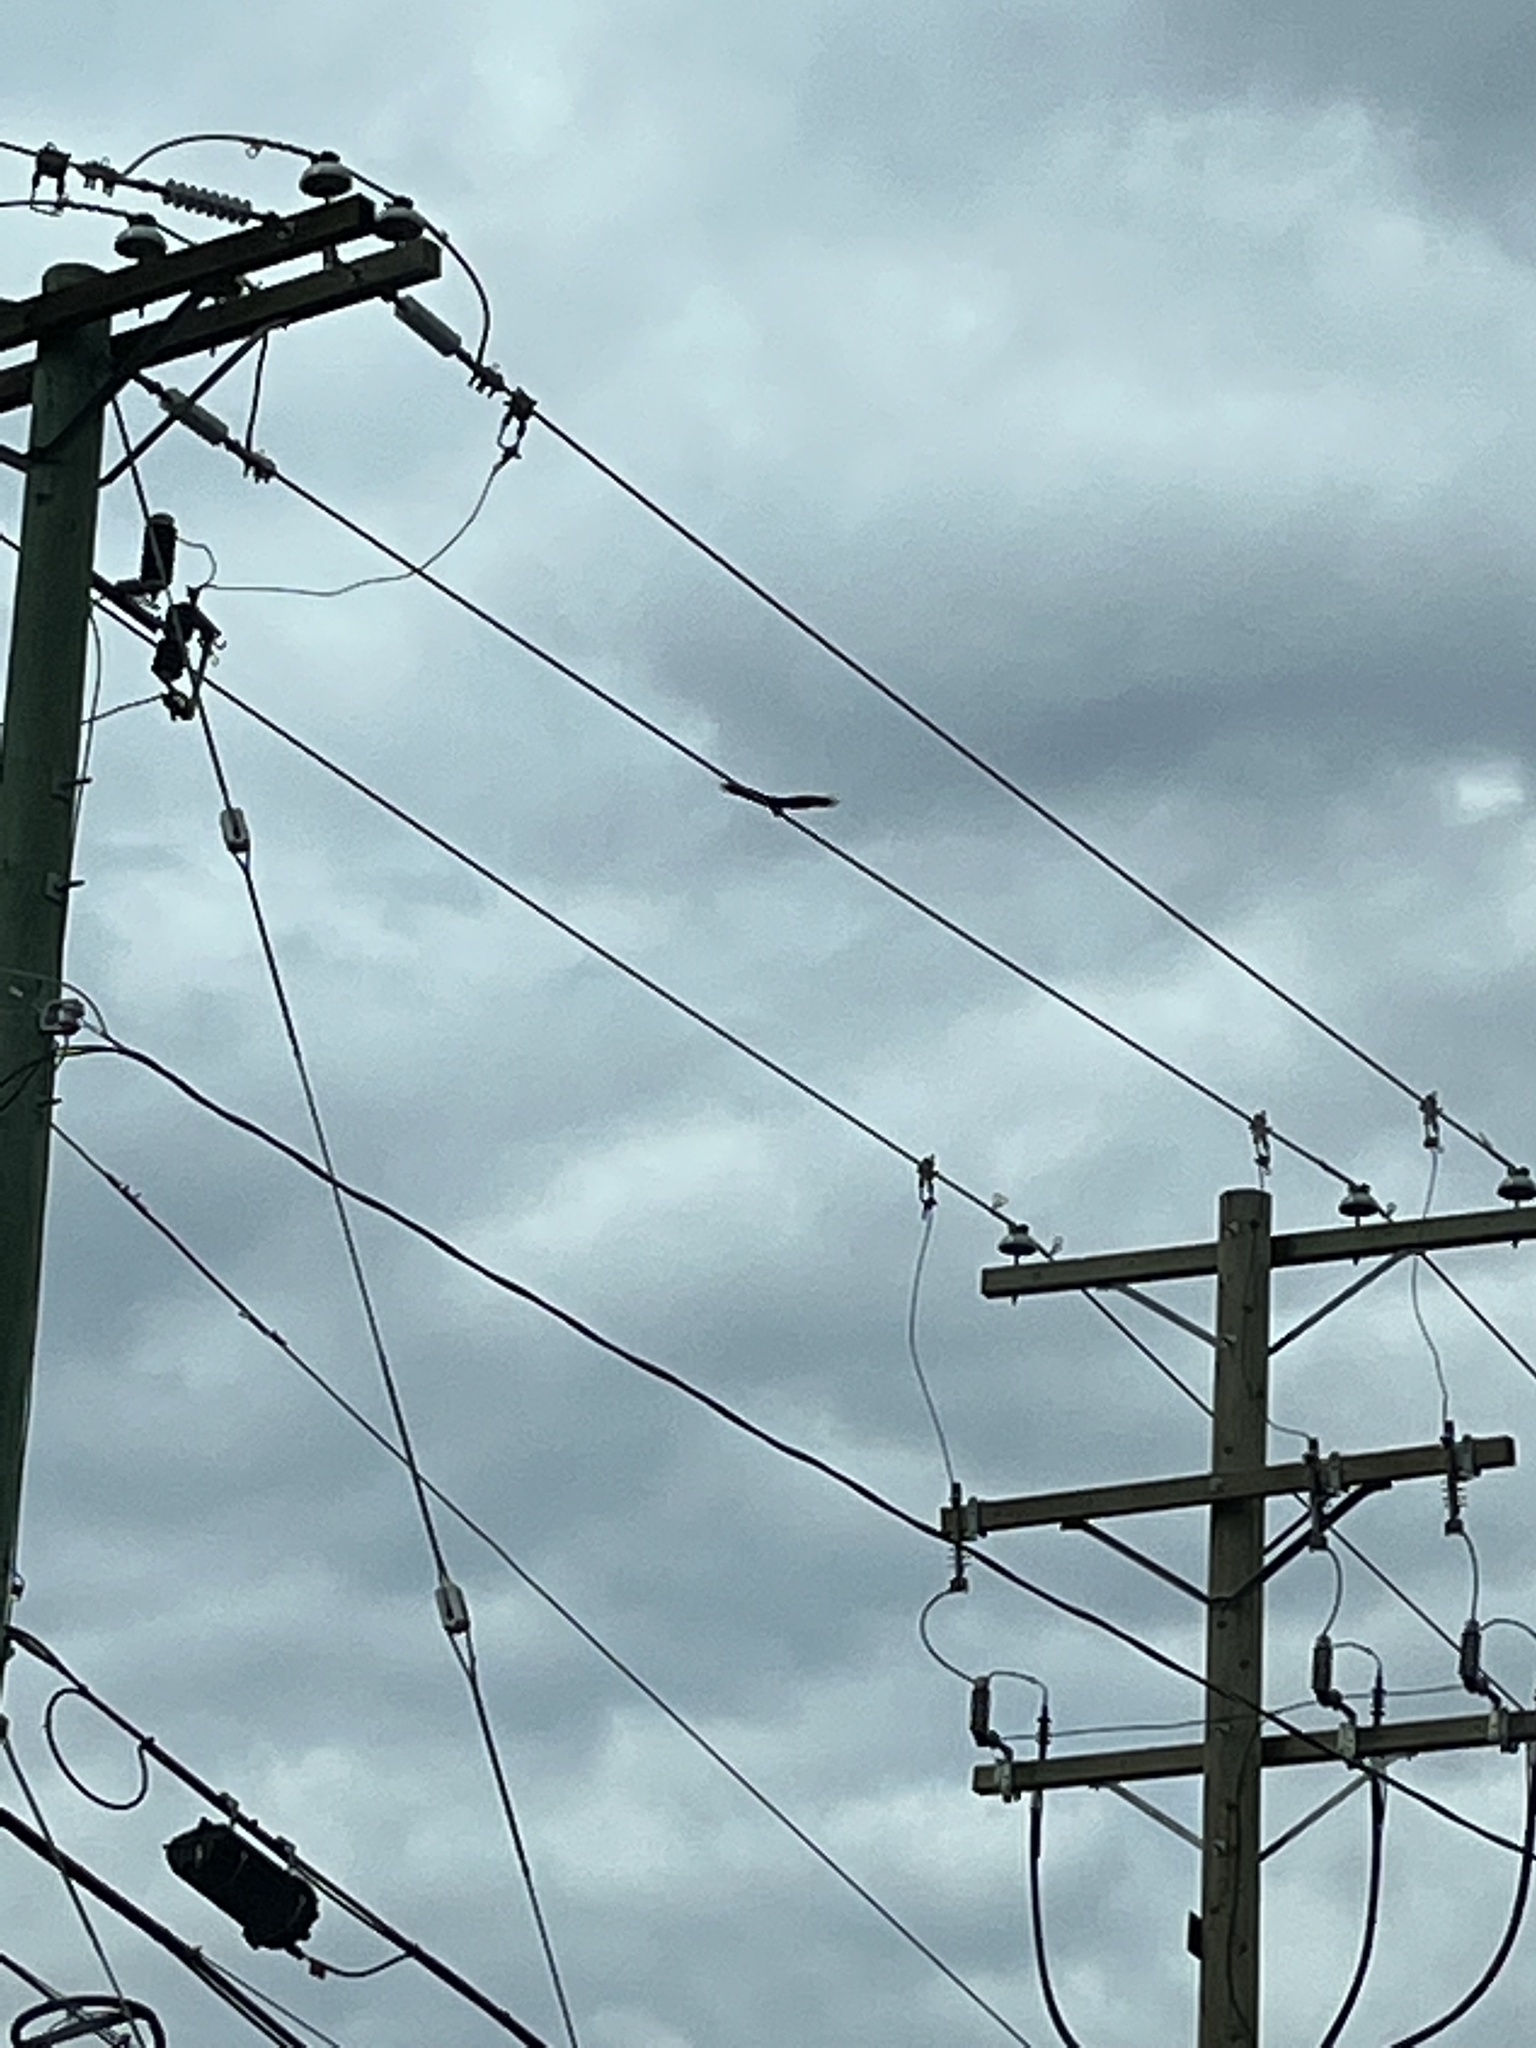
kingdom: Animalia
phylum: Chordata
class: Aves
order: Accipitriformes
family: Cathartidae
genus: Cathartes
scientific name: Cathartes aura
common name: Turkey vulture
